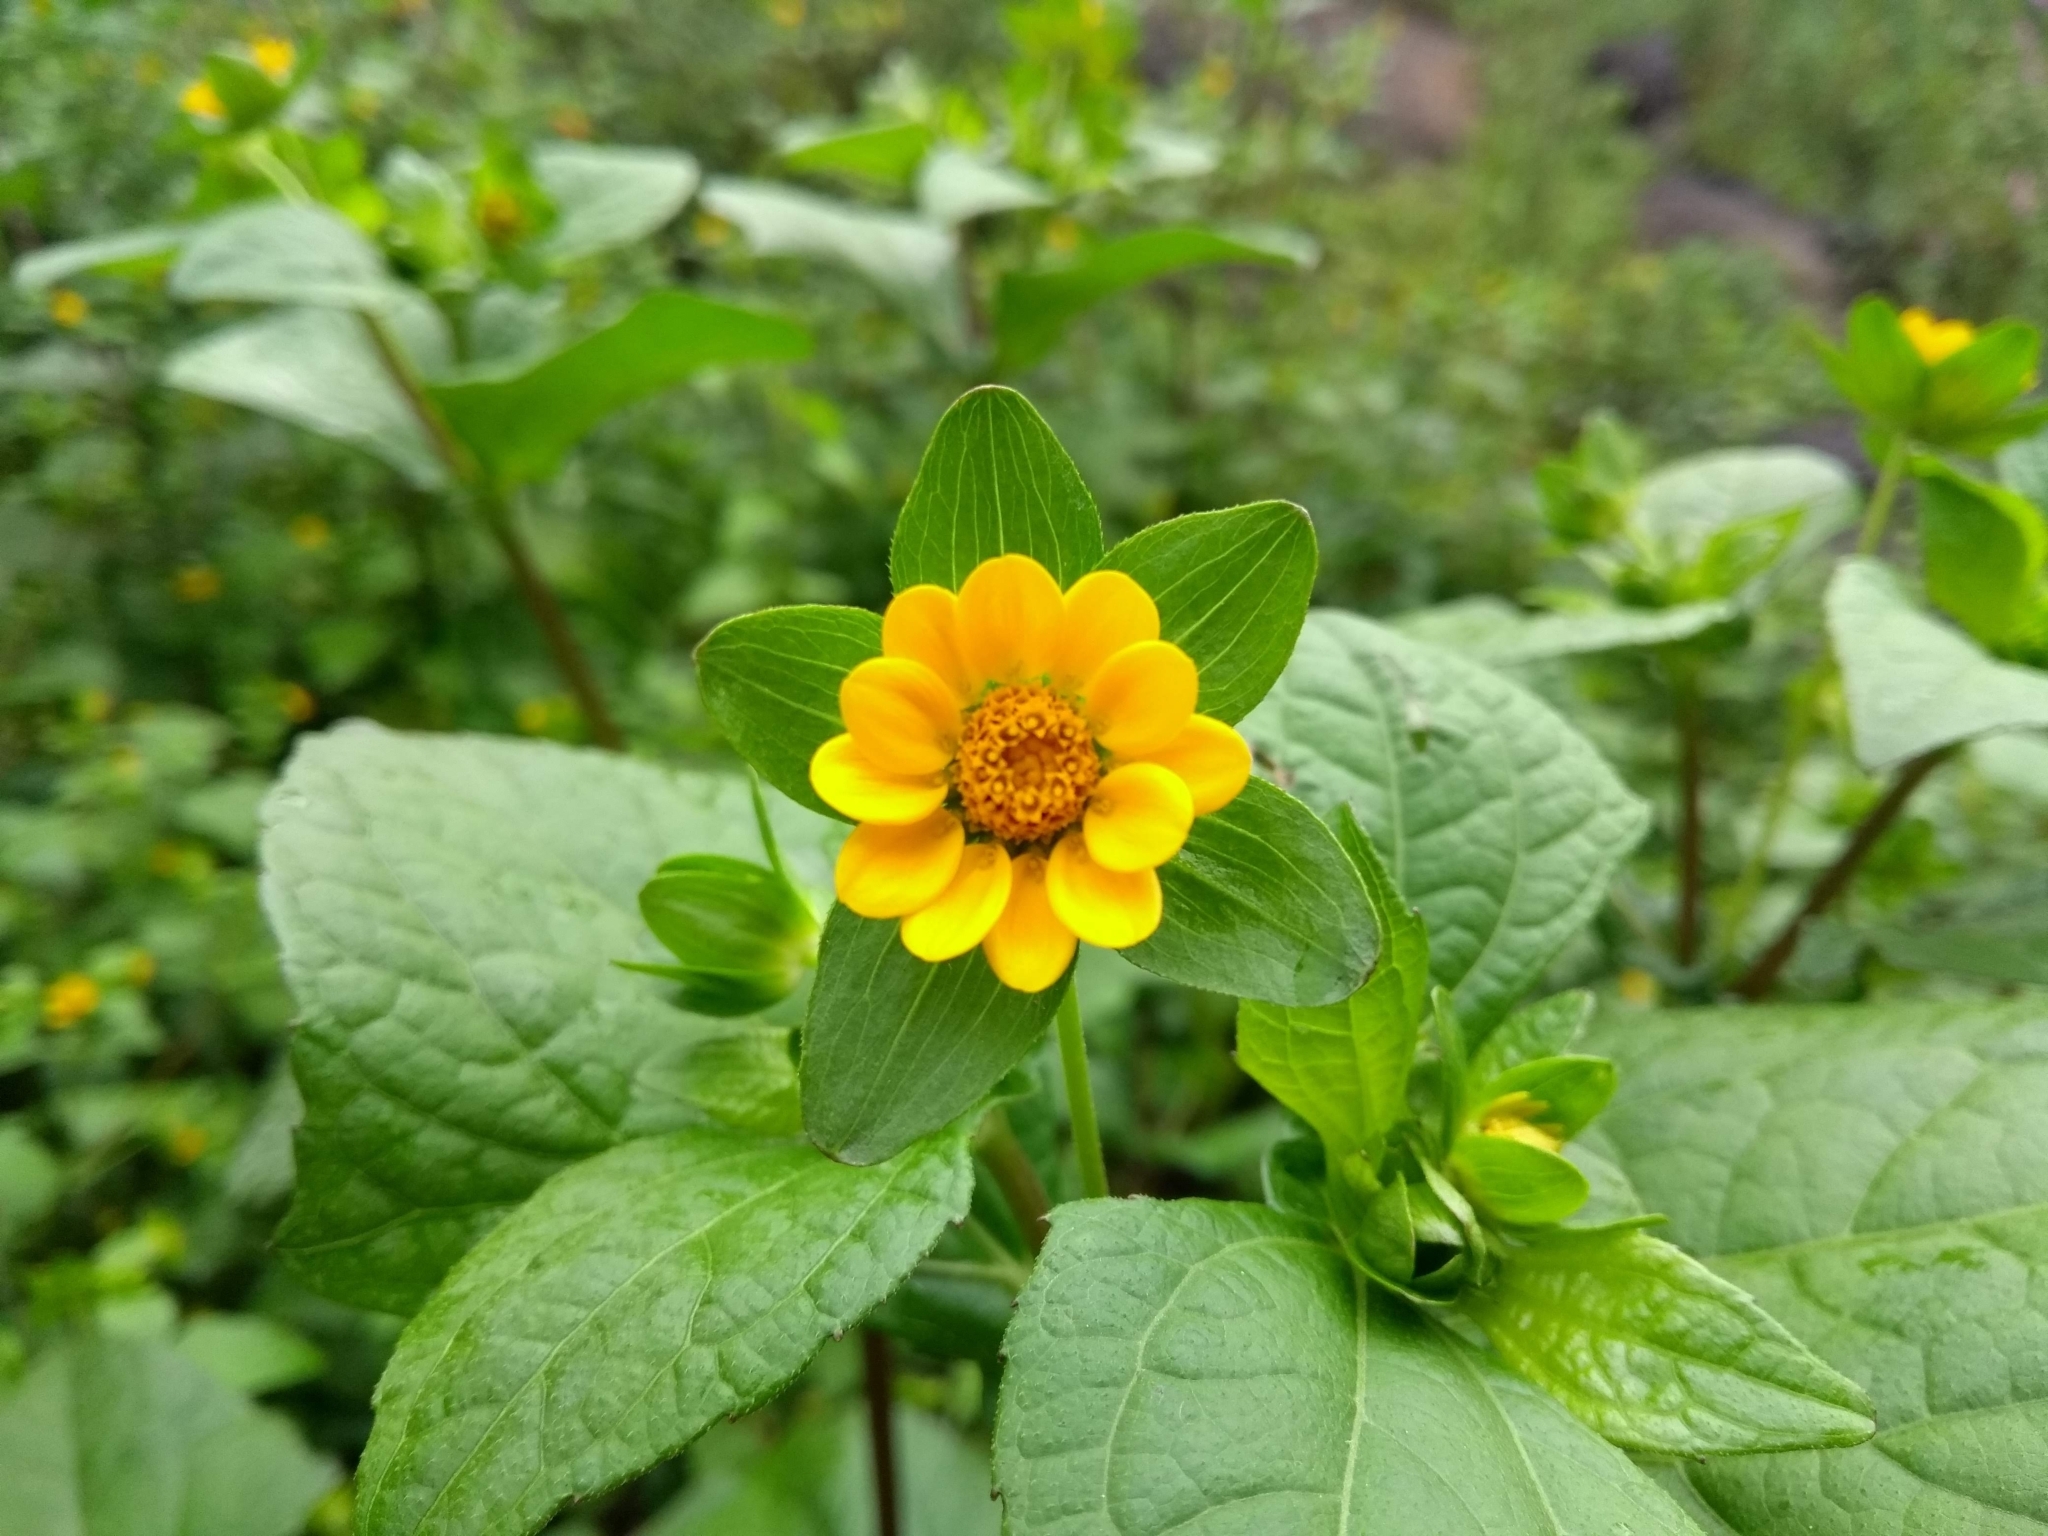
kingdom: Plantae
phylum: Tracheophyta
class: Magnoliopsida
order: Asterales
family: Asteraceae
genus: Melampodium
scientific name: Melampodium perfoliatum
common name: Perfoliate blackfoot
